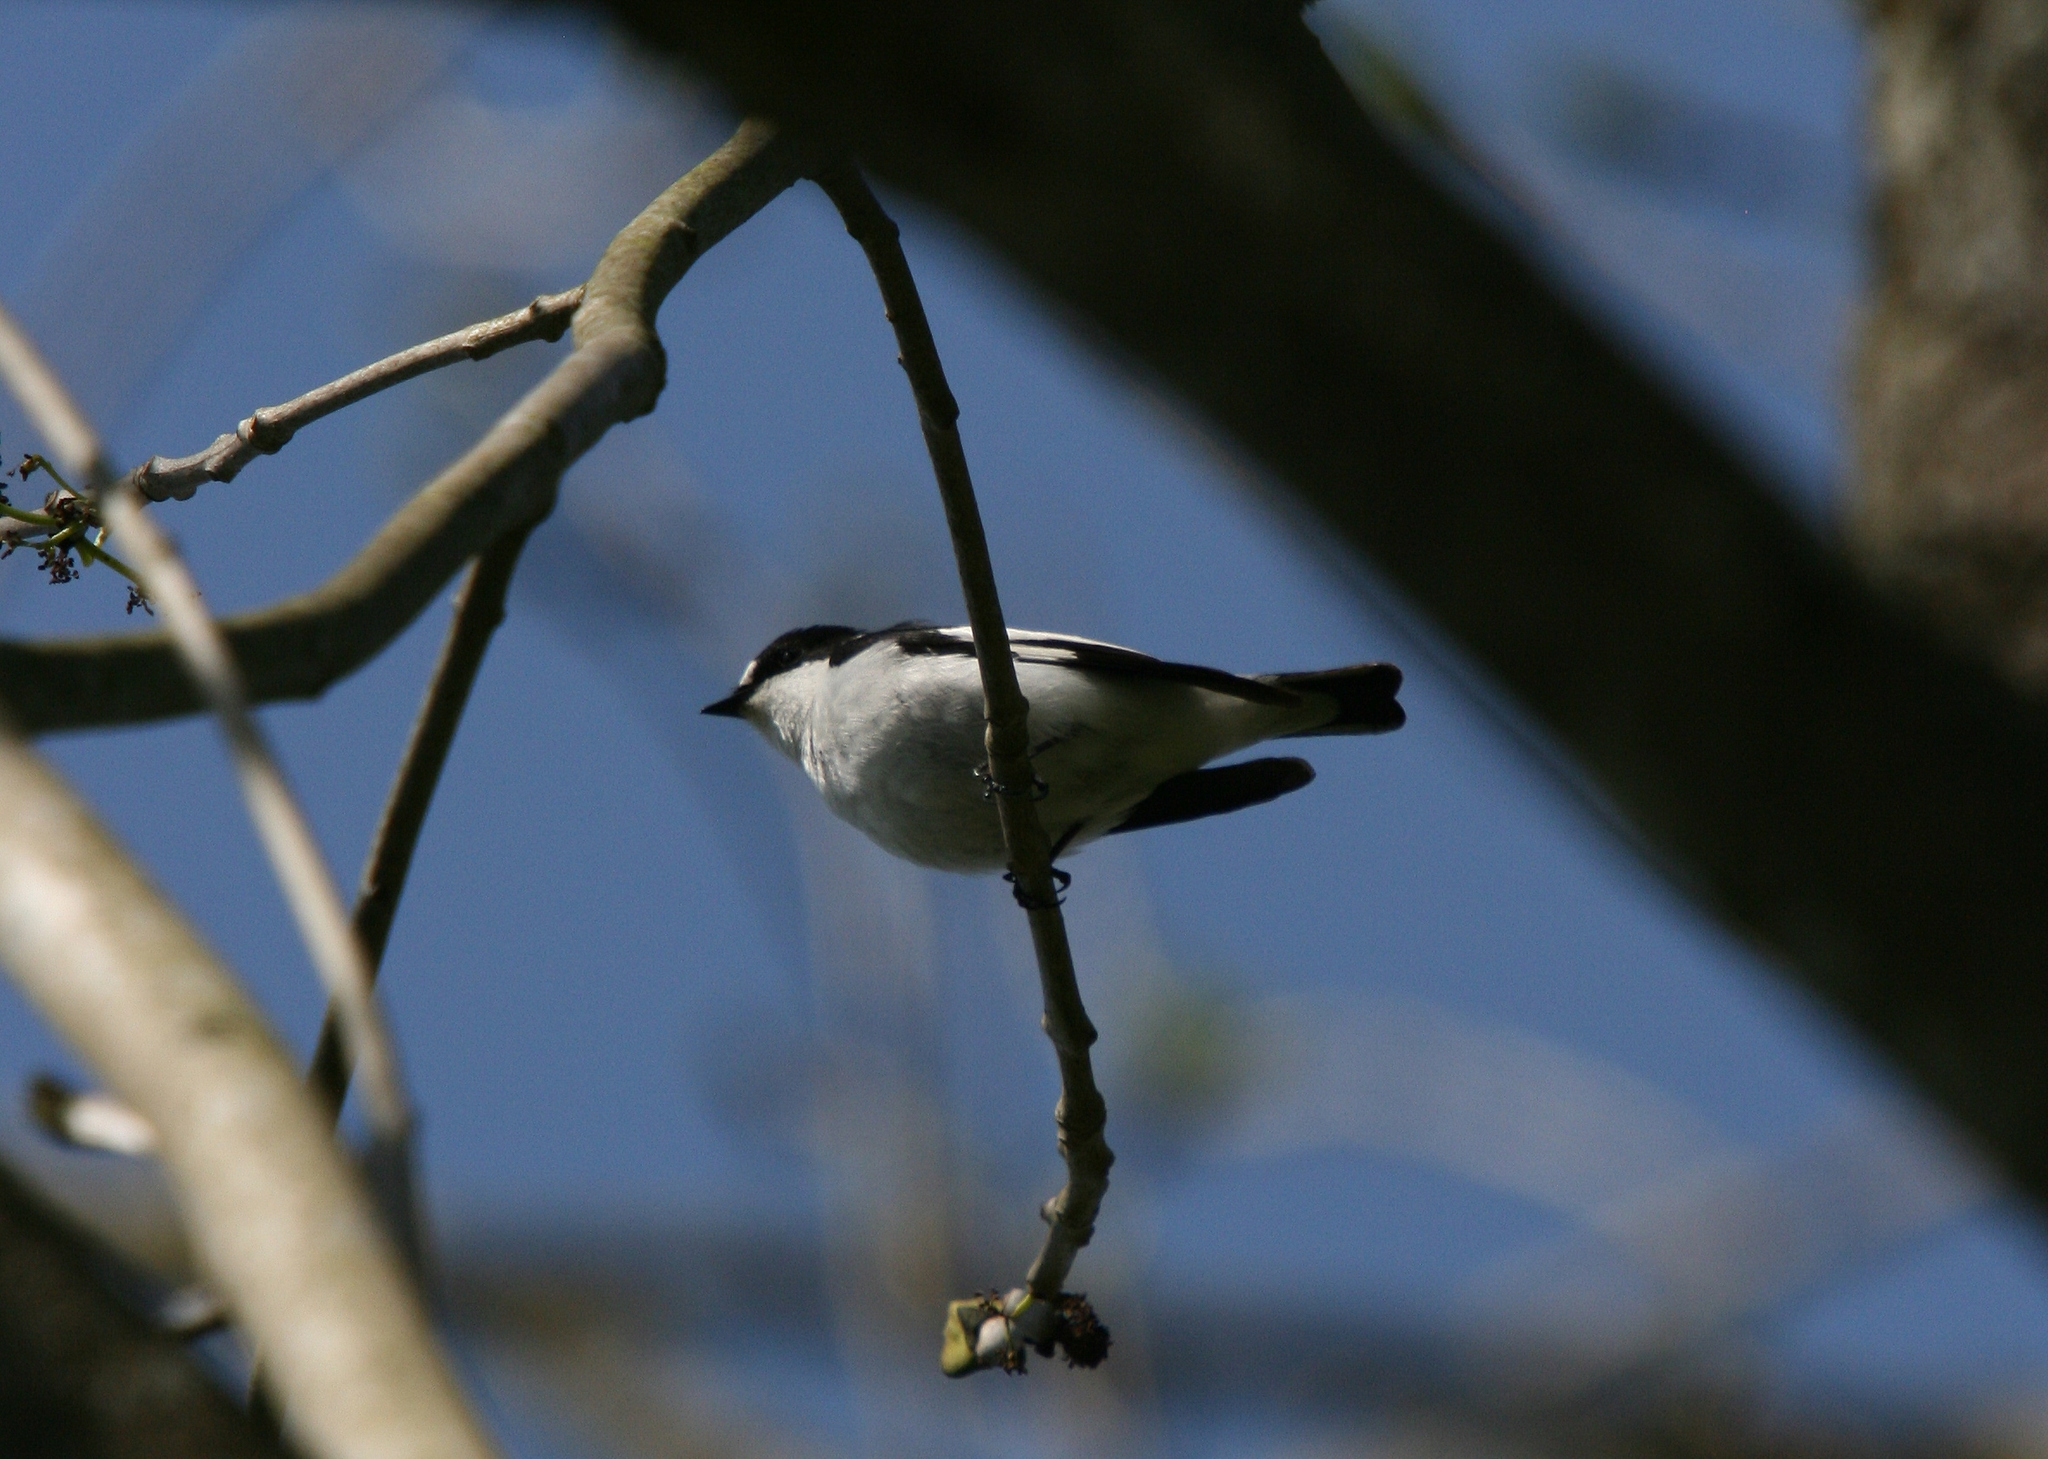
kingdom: Animalia
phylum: Chordata
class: Aves
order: Passeriformes
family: Muscicapidae
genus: Ficedula
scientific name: Ficedula albicollis
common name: Collared flycatcher
